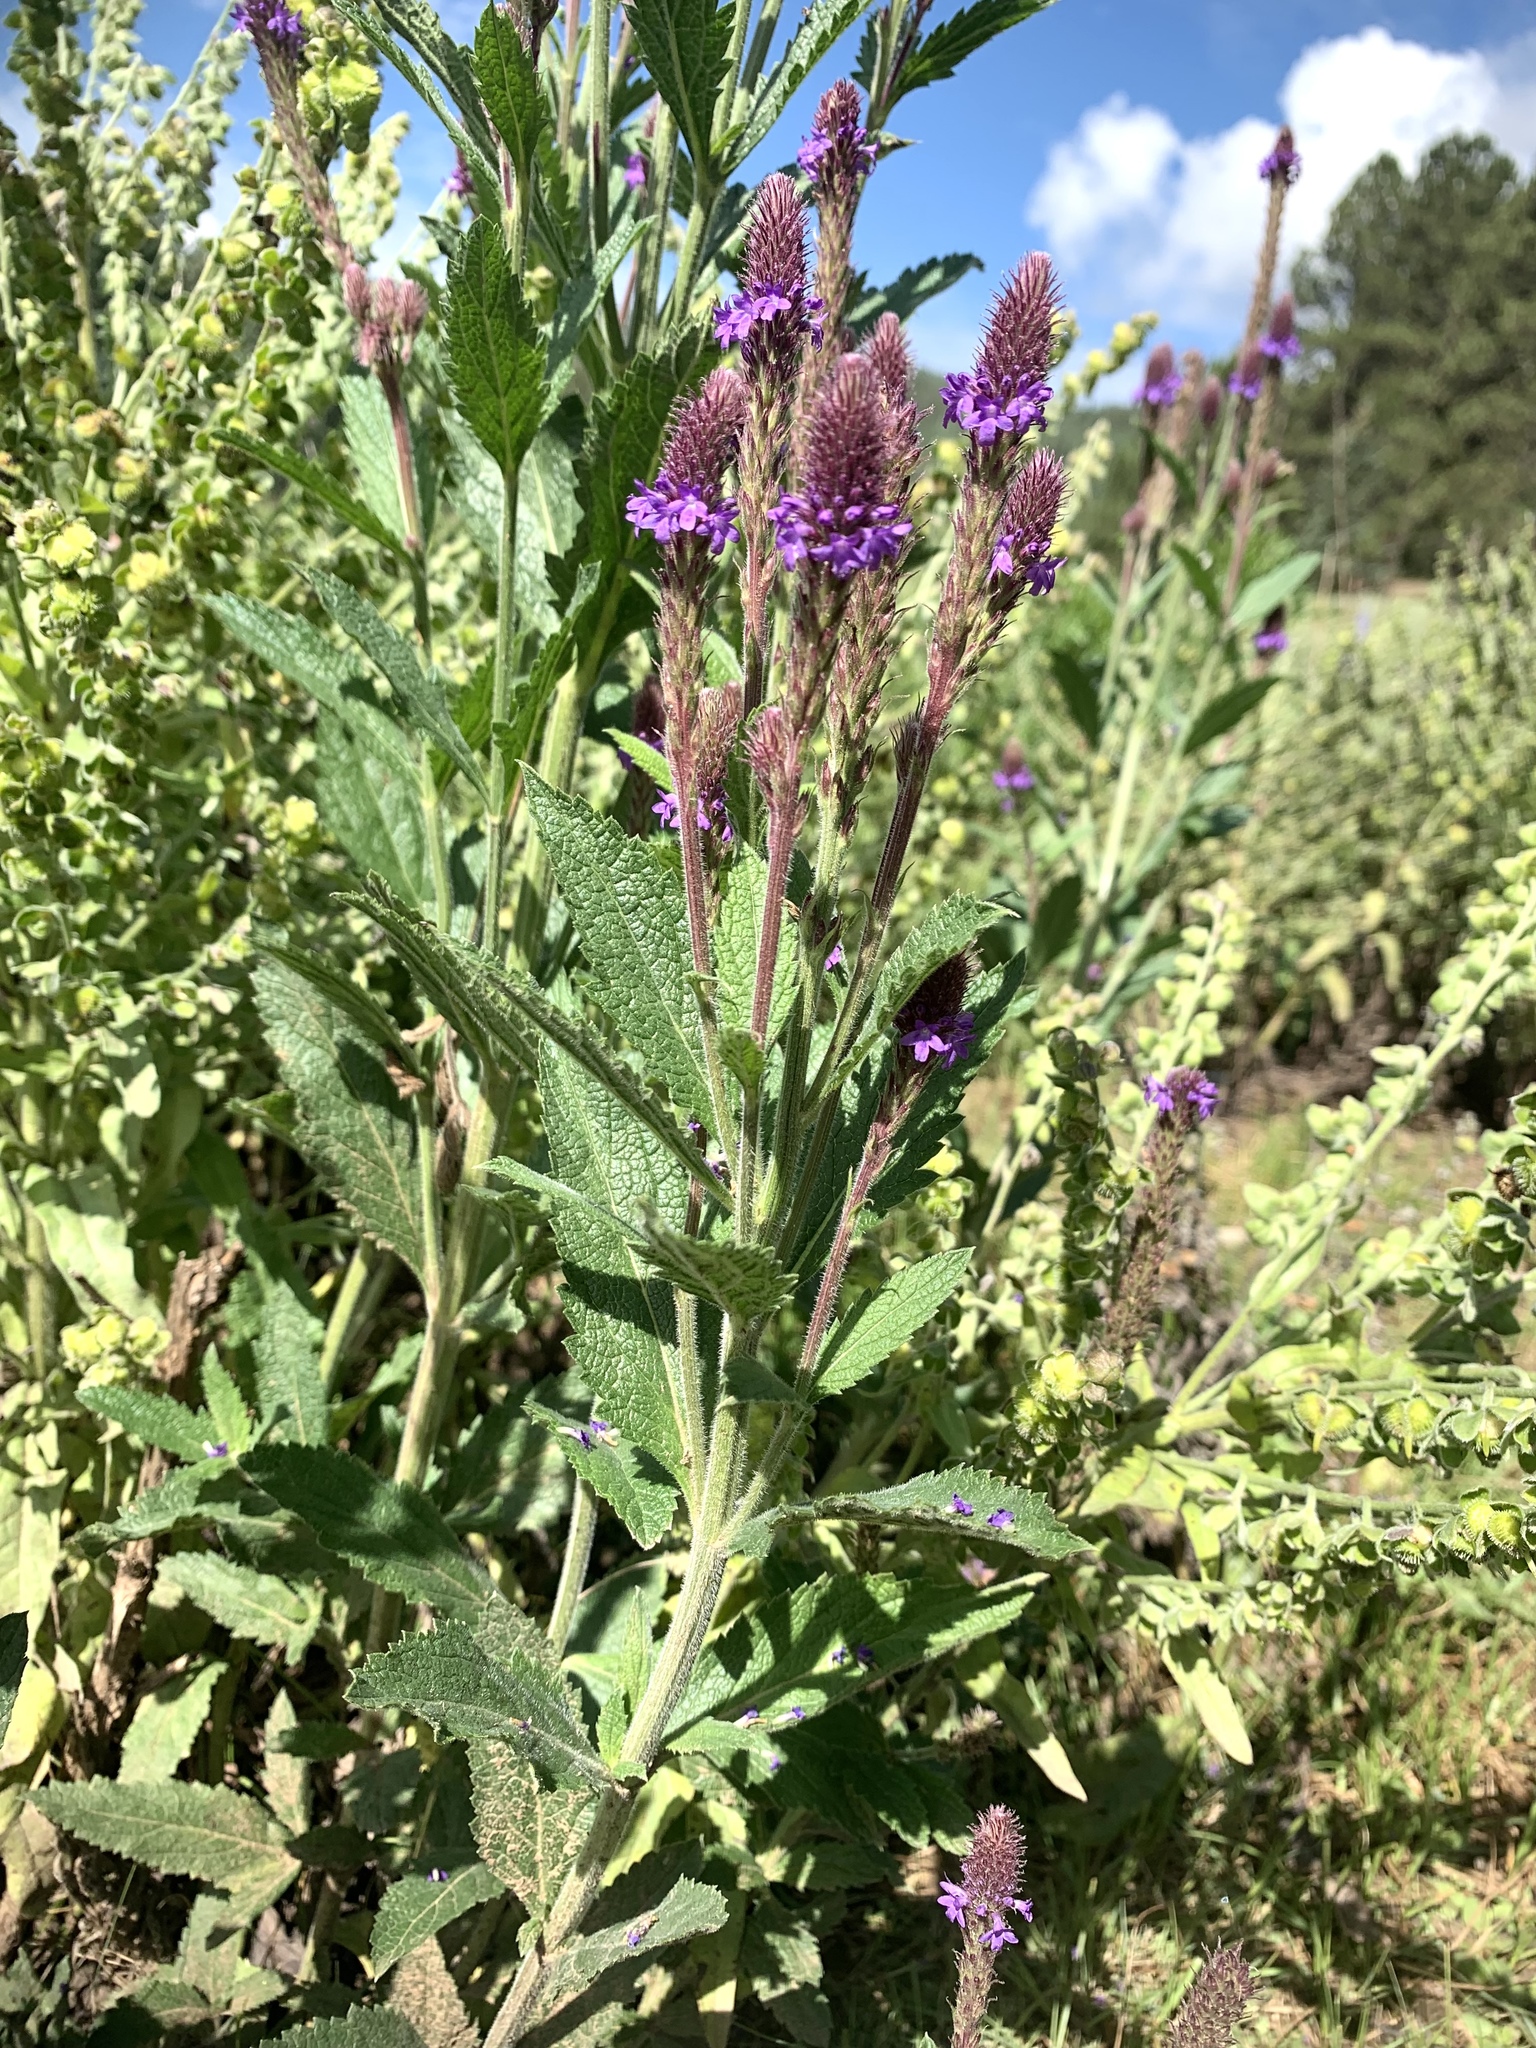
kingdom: Plantae
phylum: Tracheophyta
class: Magnoliopsida
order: Lamiales
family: Verbenaceae
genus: Verbena
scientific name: Verbena macdougalii
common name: New mexico vervain
